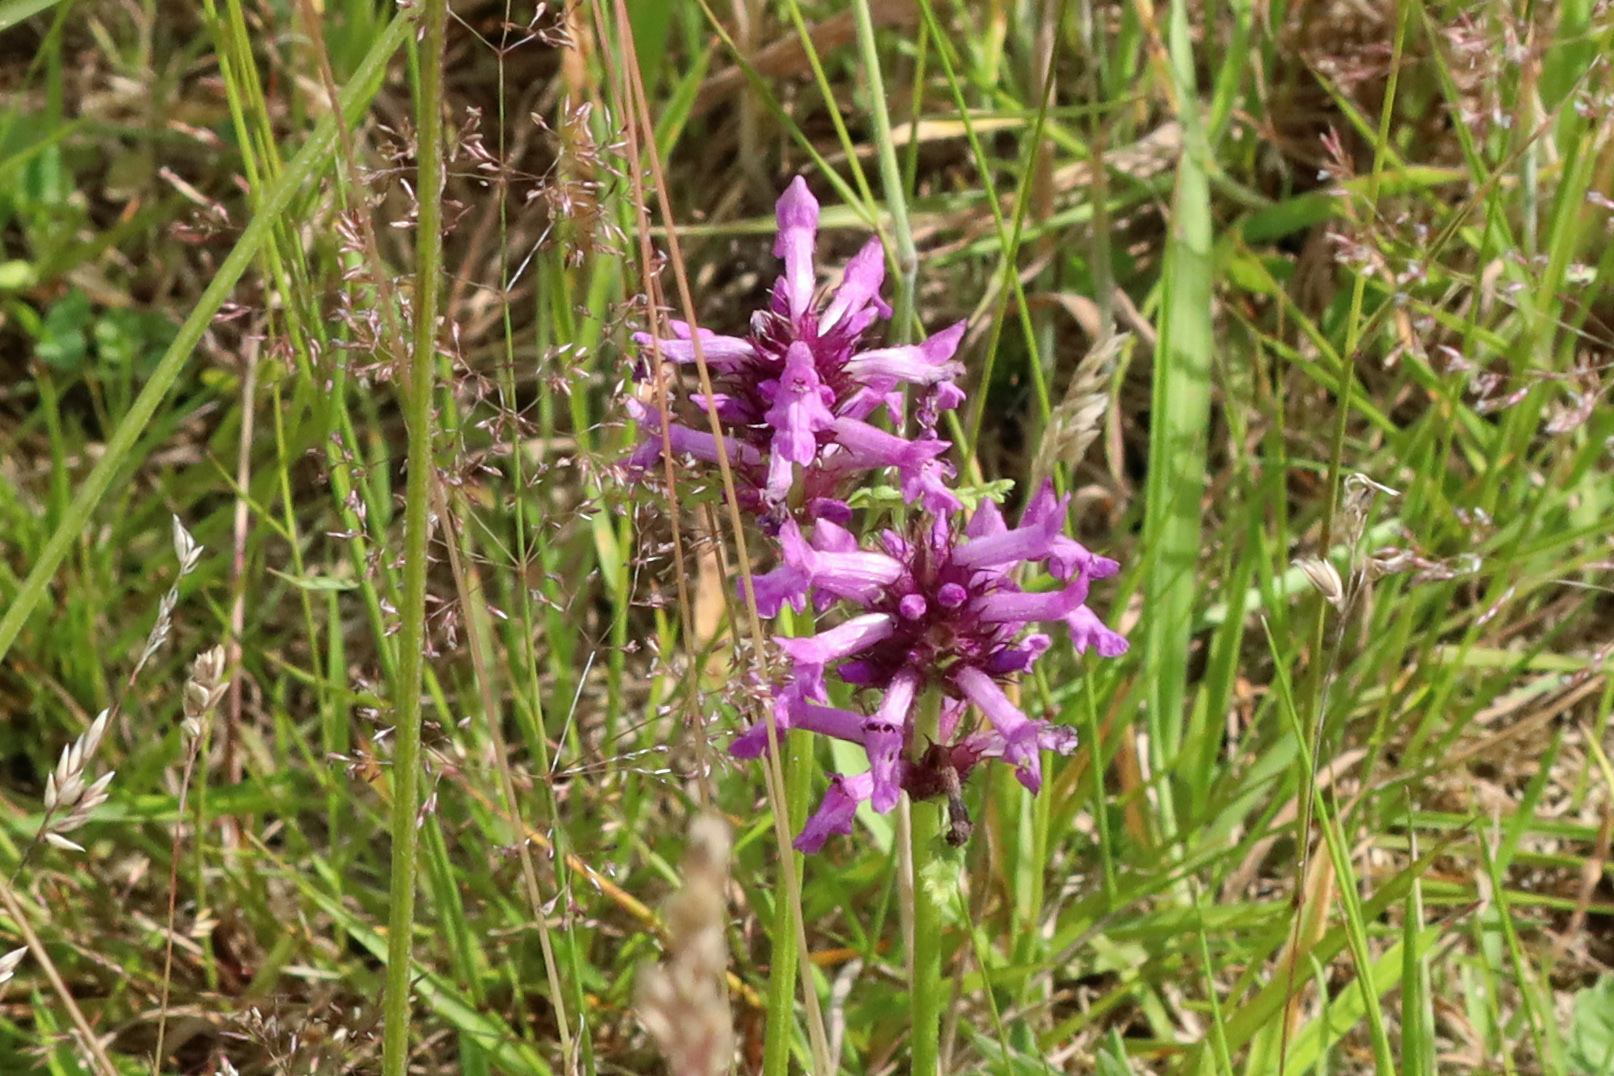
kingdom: Plantae
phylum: Tracheophyta
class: Magnoliopsida
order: Lamiales
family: Lamiaceae
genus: Betonica
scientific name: Betonica officinalis
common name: Bishop's-wort
